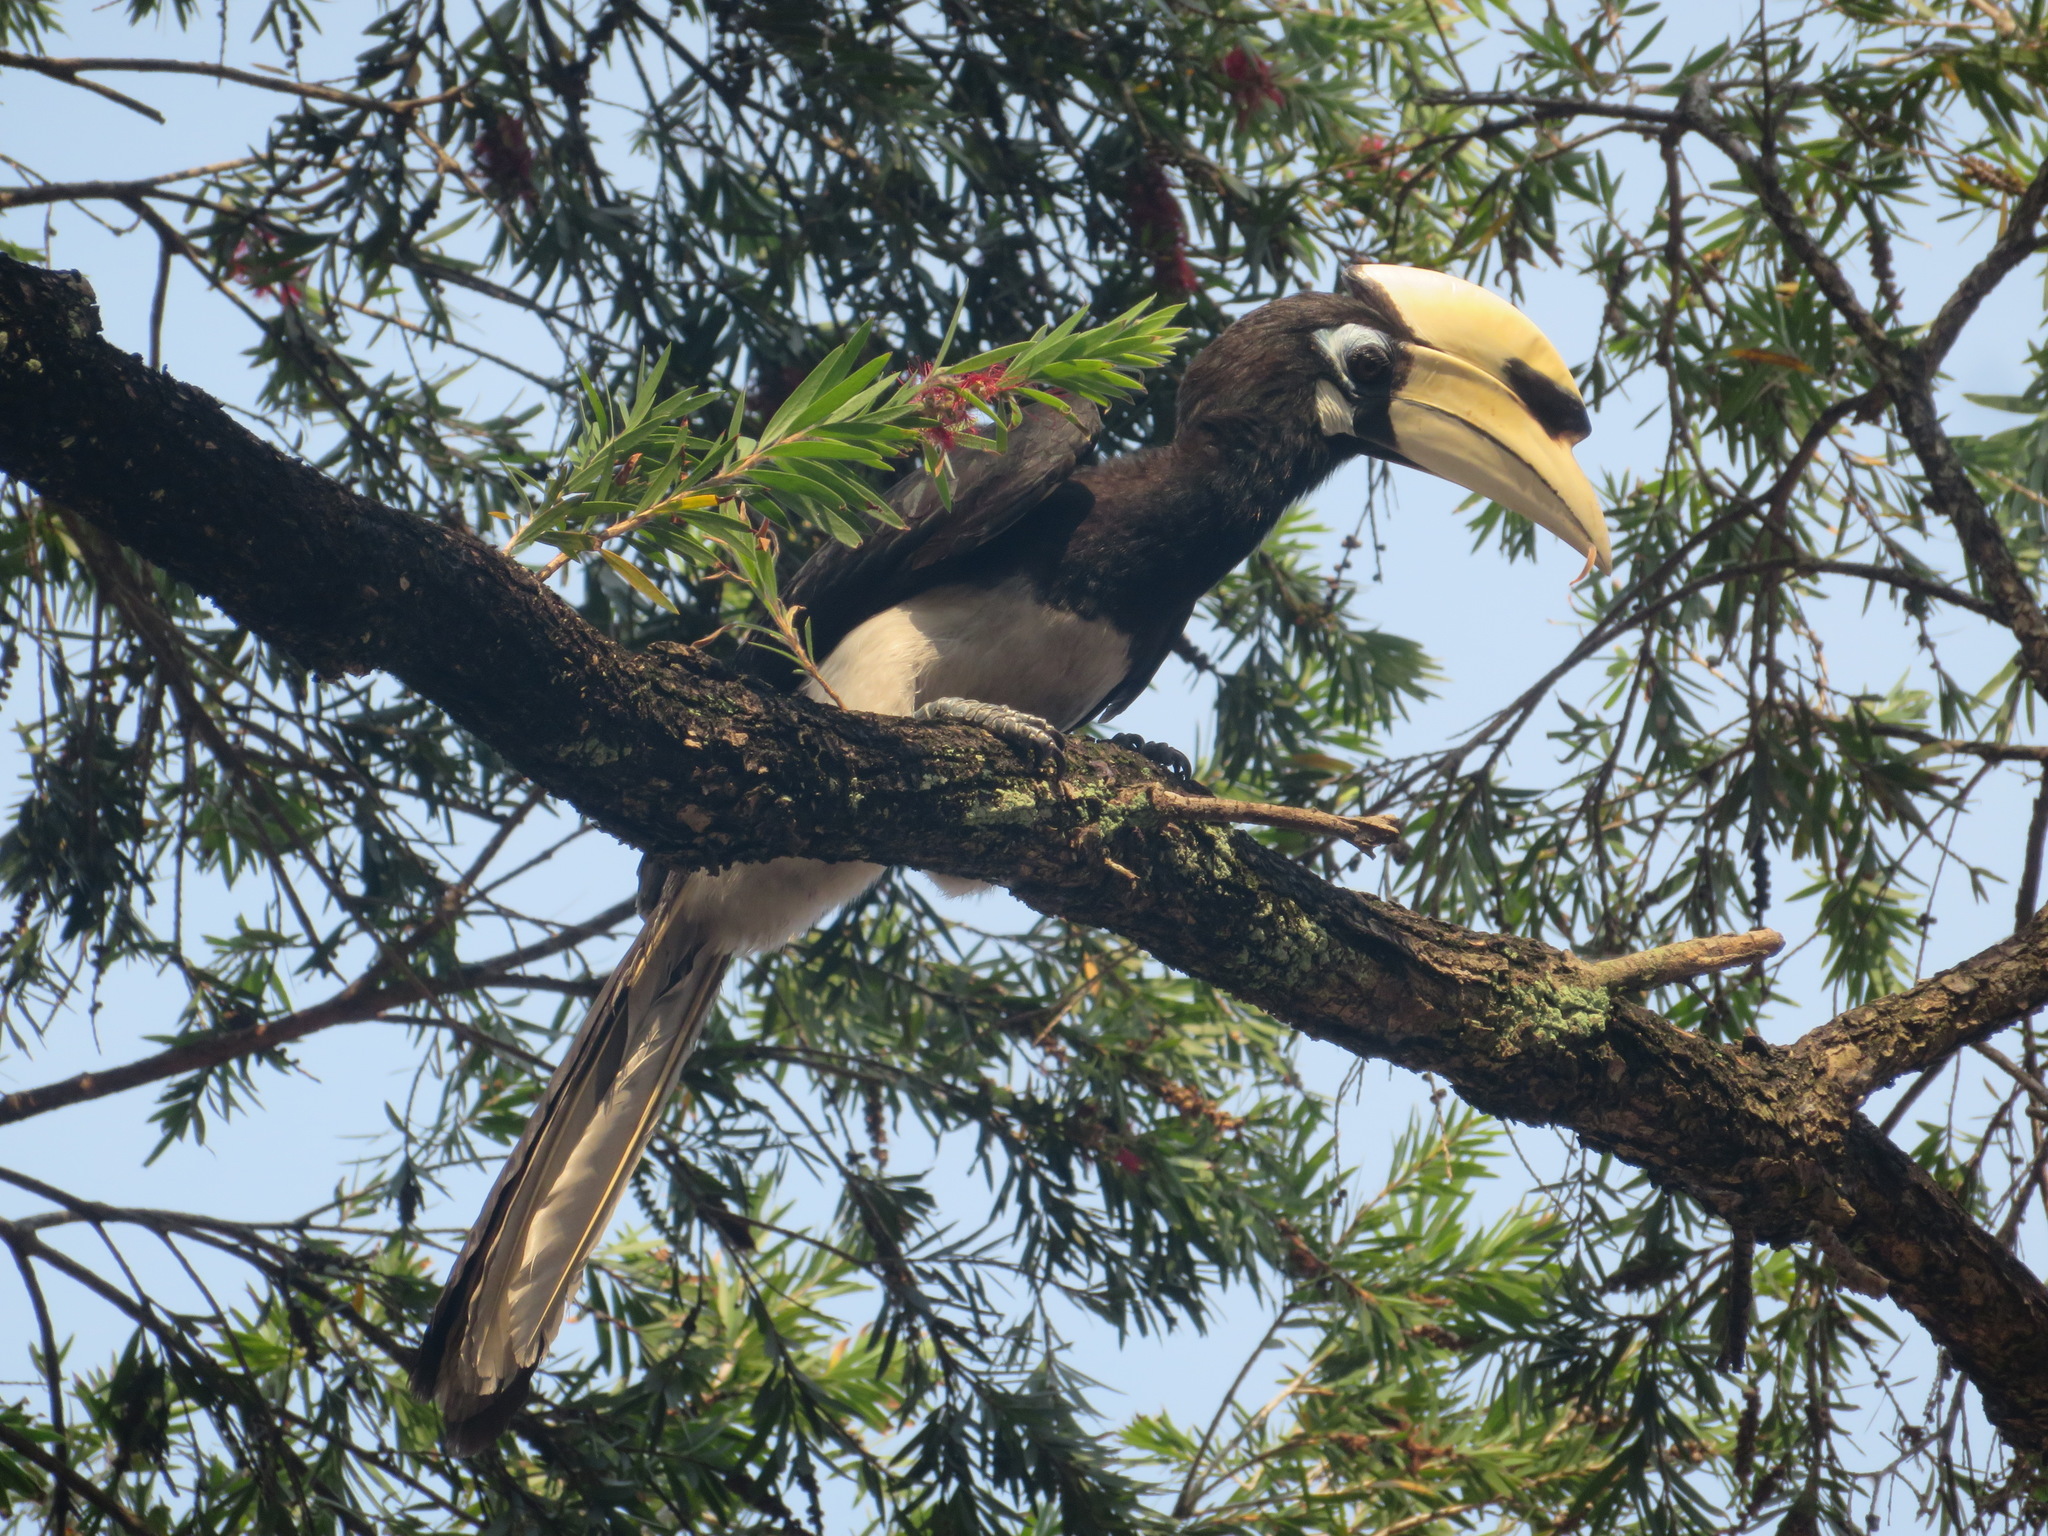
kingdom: Animalia
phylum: Chordata
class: Aves
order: Bucerotiformes
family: Bucerotidae
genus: Anthracoceros
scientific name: Anthracoceros albirostris
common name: Oriental pied-hornbill
